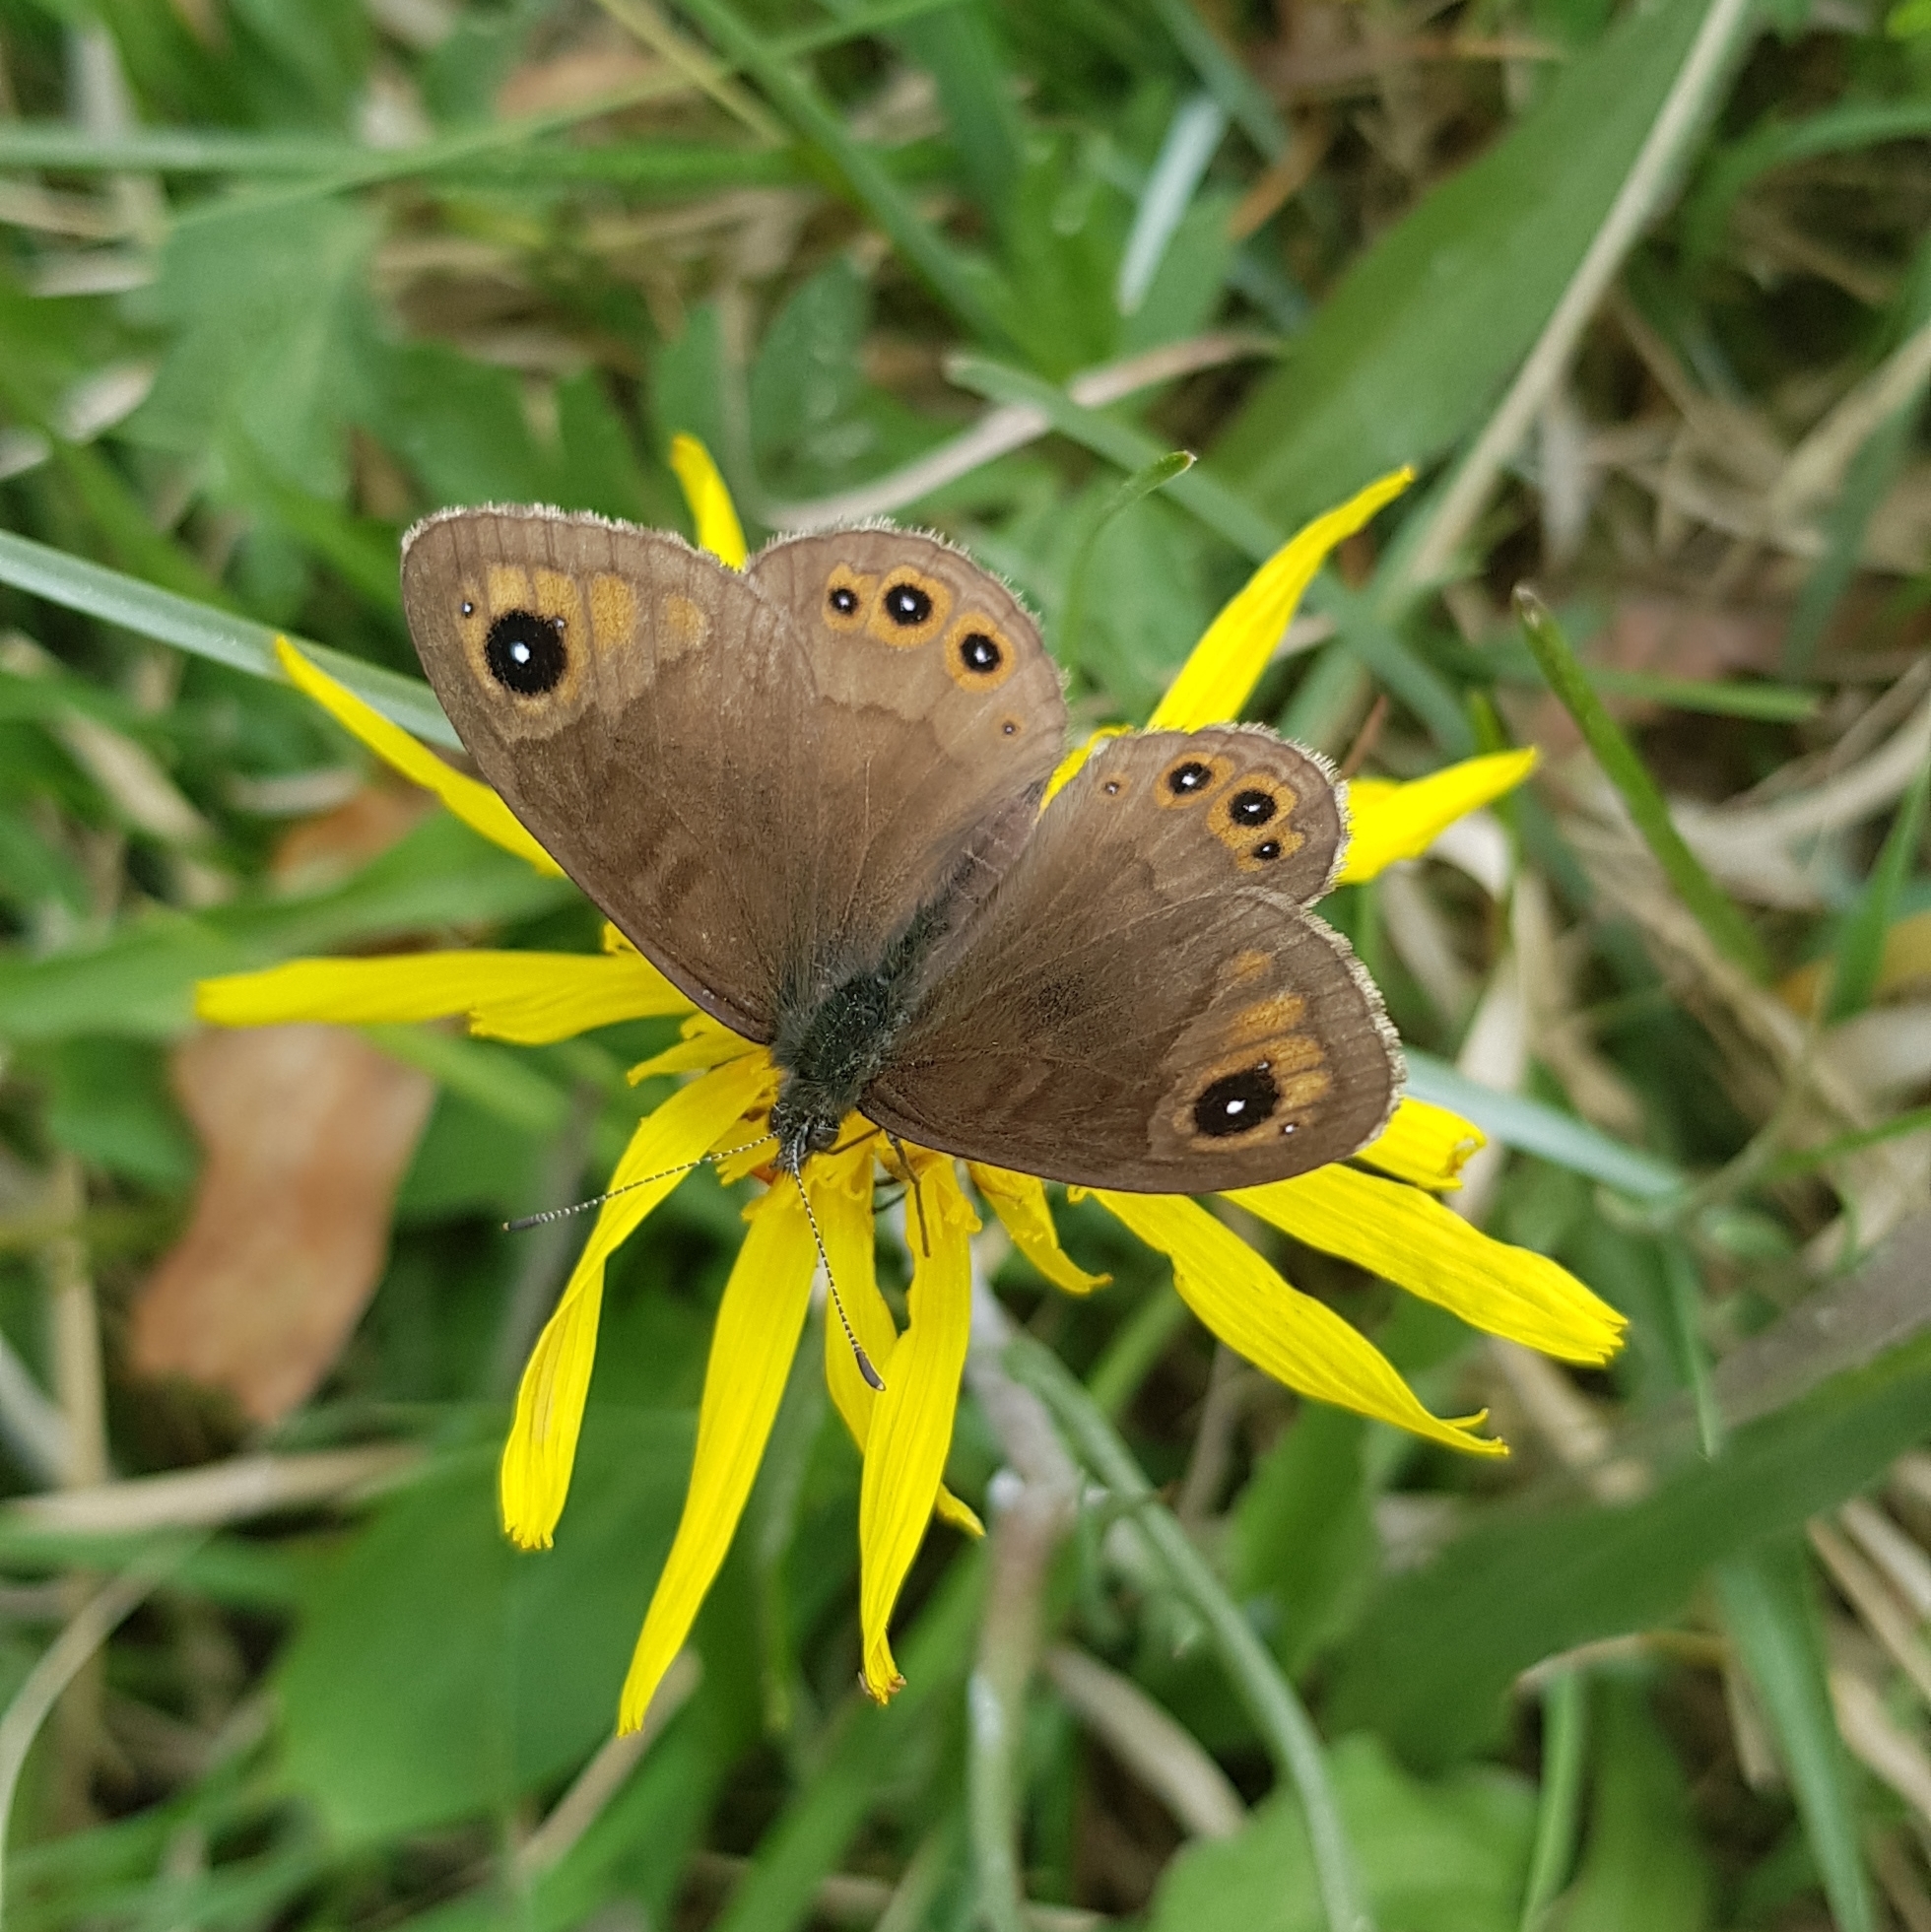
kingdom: Animalia
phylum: Arthropoda
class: Insecta
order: Lepidoptera
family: Nymphalidae
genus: Pararge
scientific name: Pararge petropolitana
